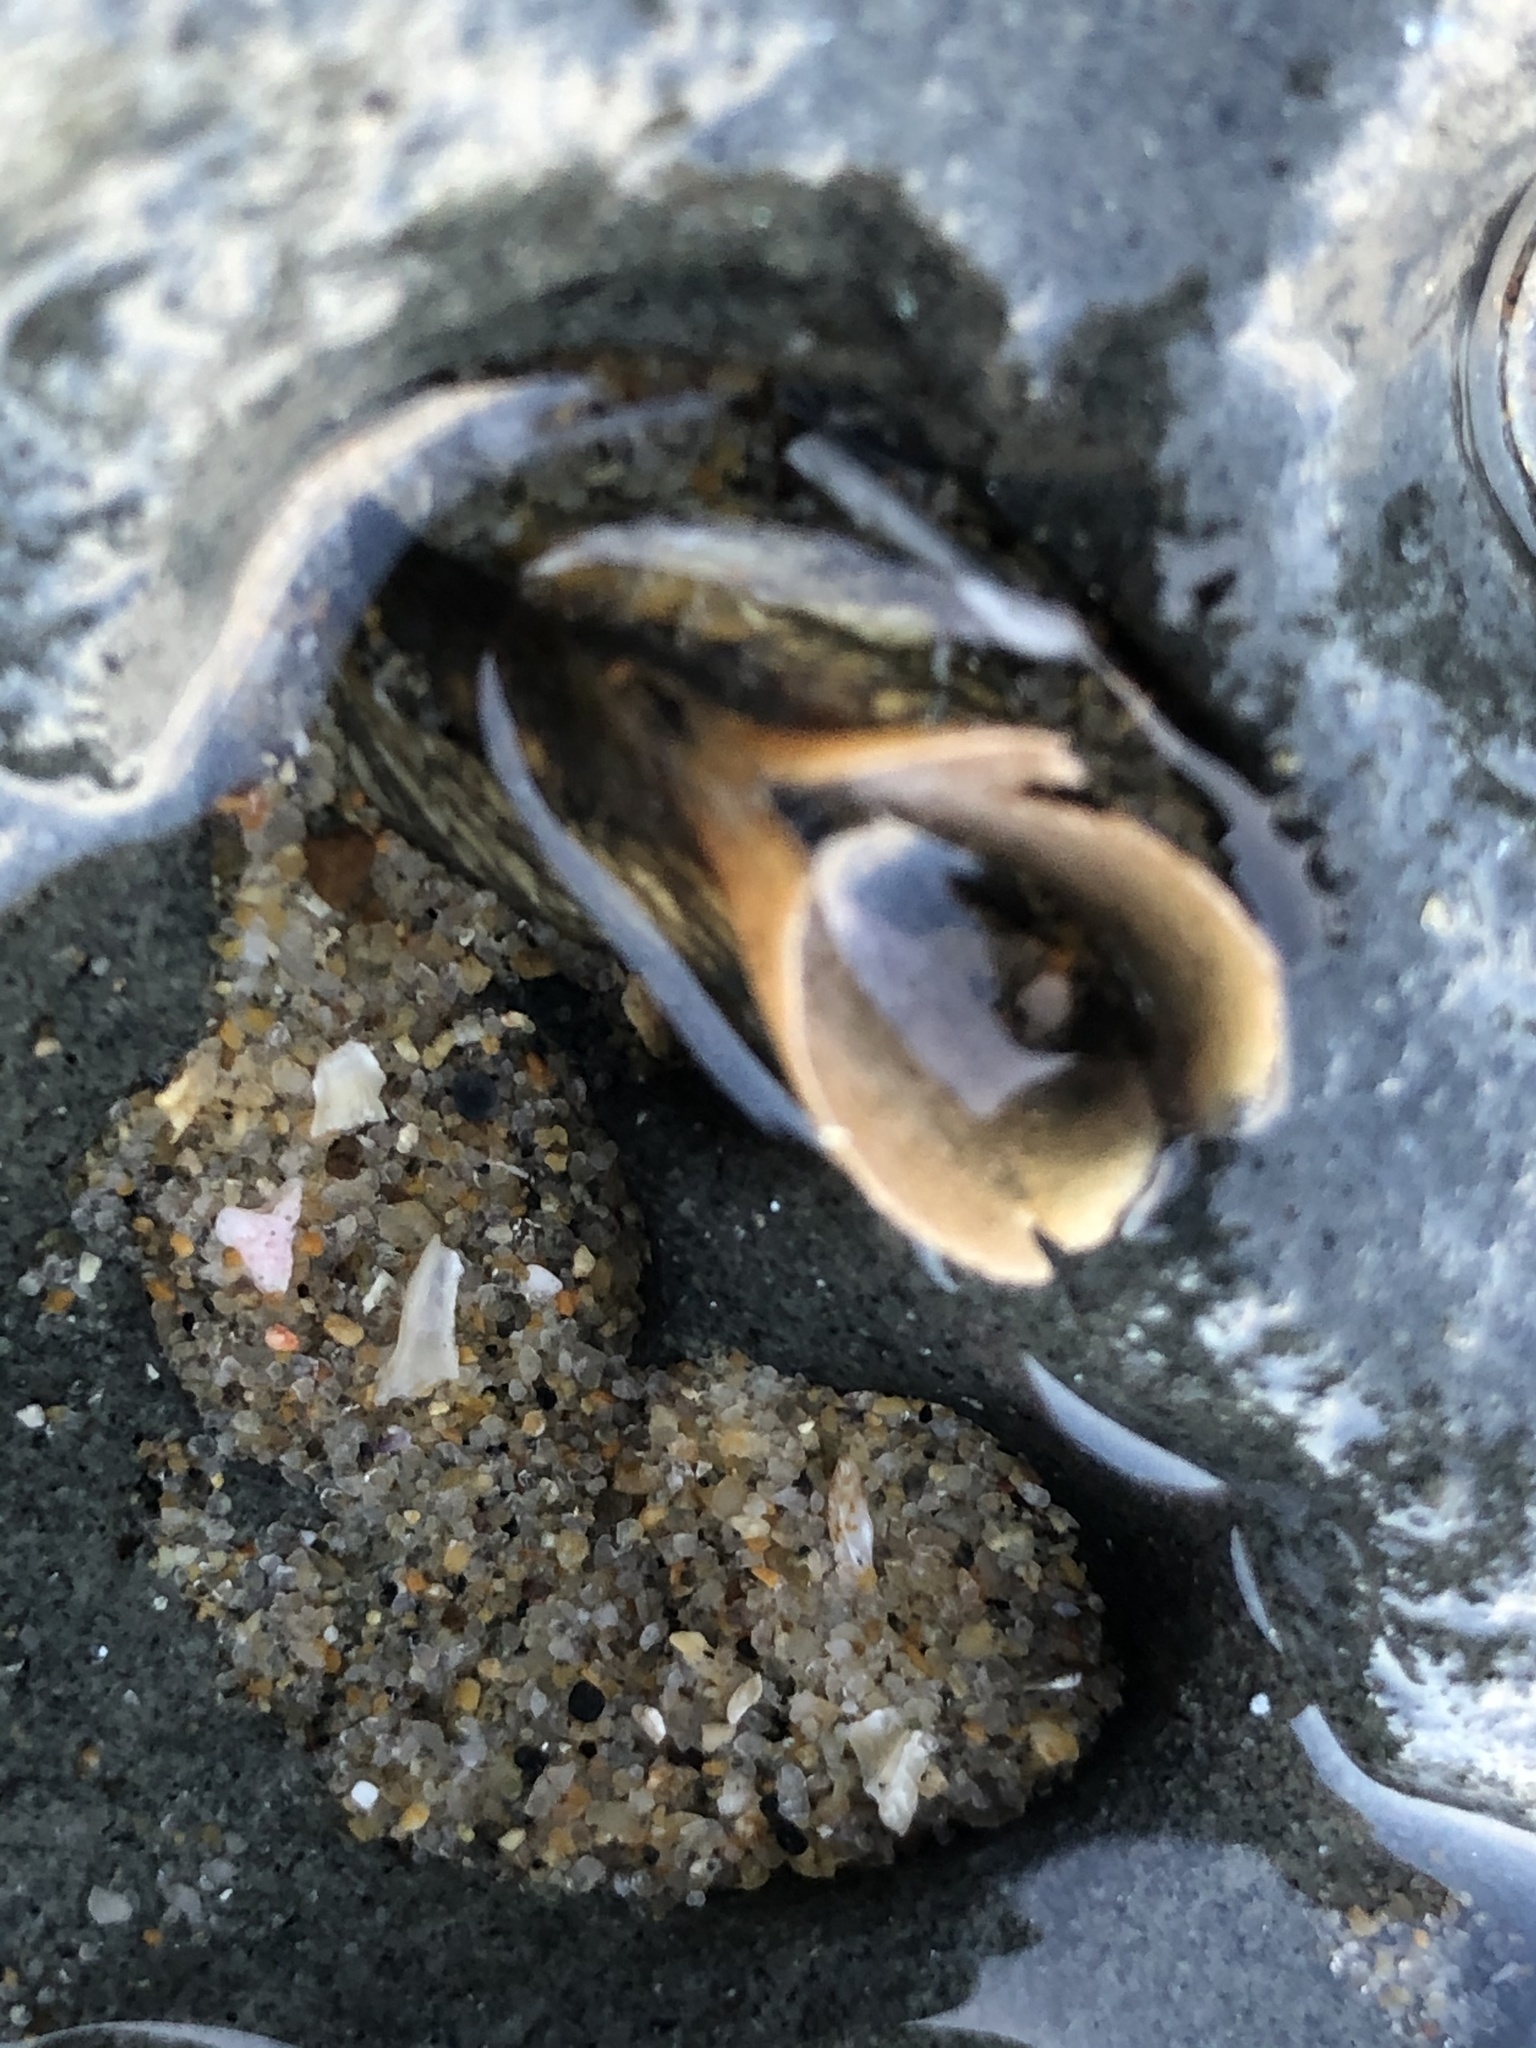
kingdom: Animalia
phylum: Mollusca
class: Bivalvia
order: Myida
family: Pholadidae
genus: Penitella
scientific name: Penitella penita
